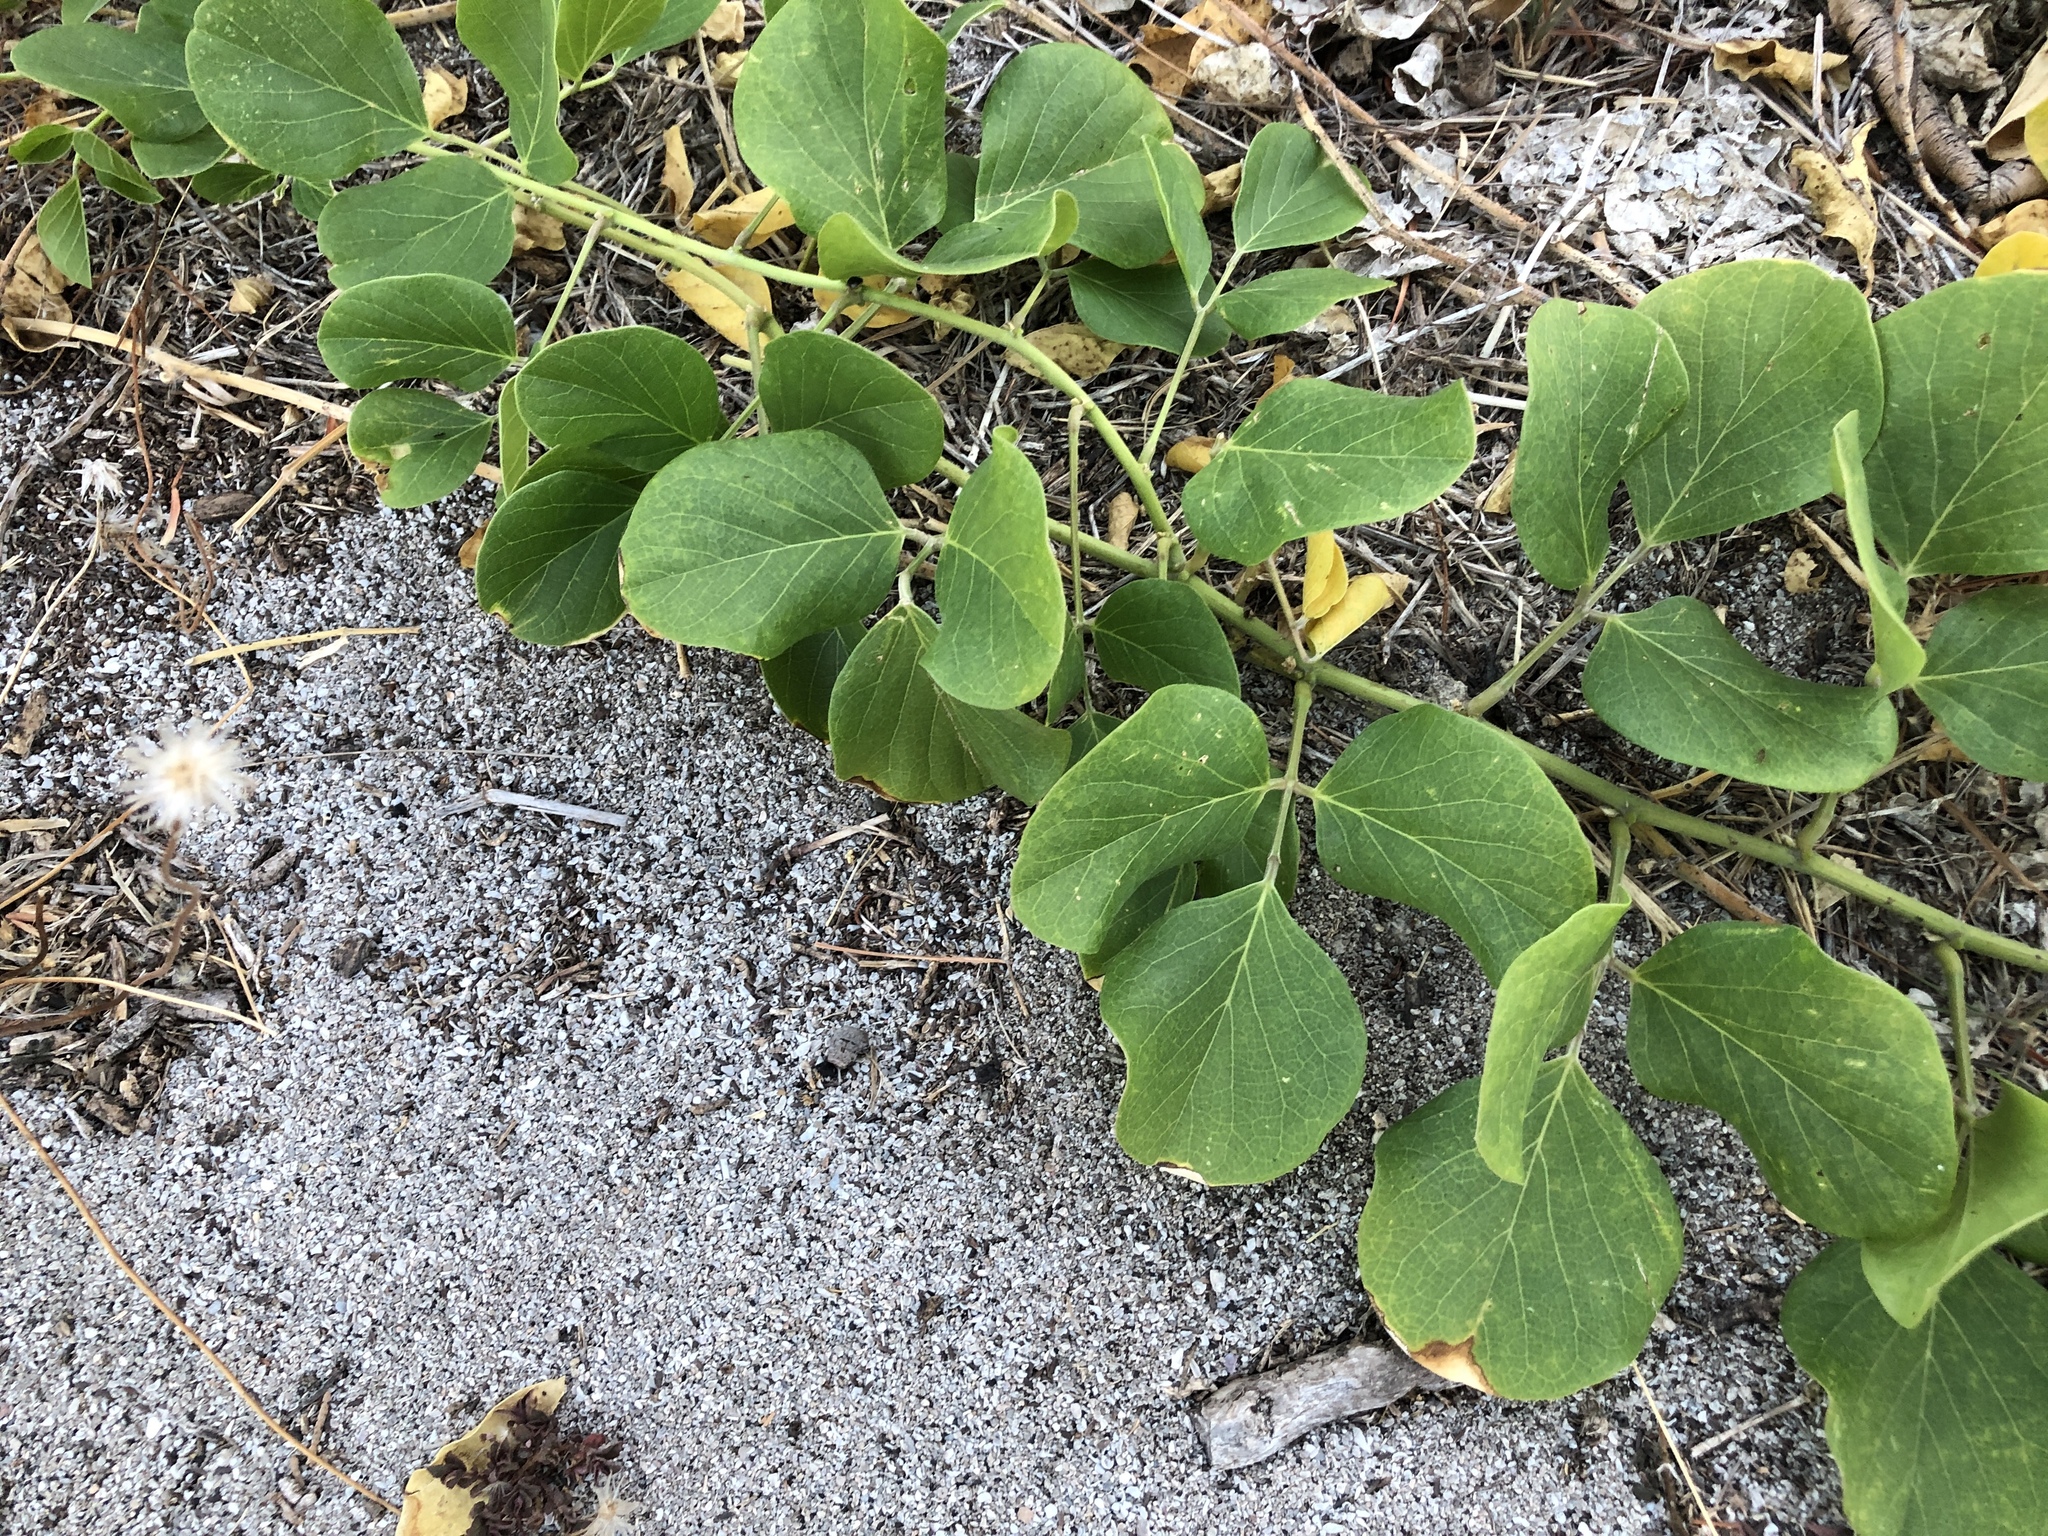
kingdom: Plantae
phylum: Tracheophyta
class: Magnoliopsida
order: Fabales
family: Fabaceae
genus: Canavalia
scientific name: Canavalia rosea
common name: Beach-bean
